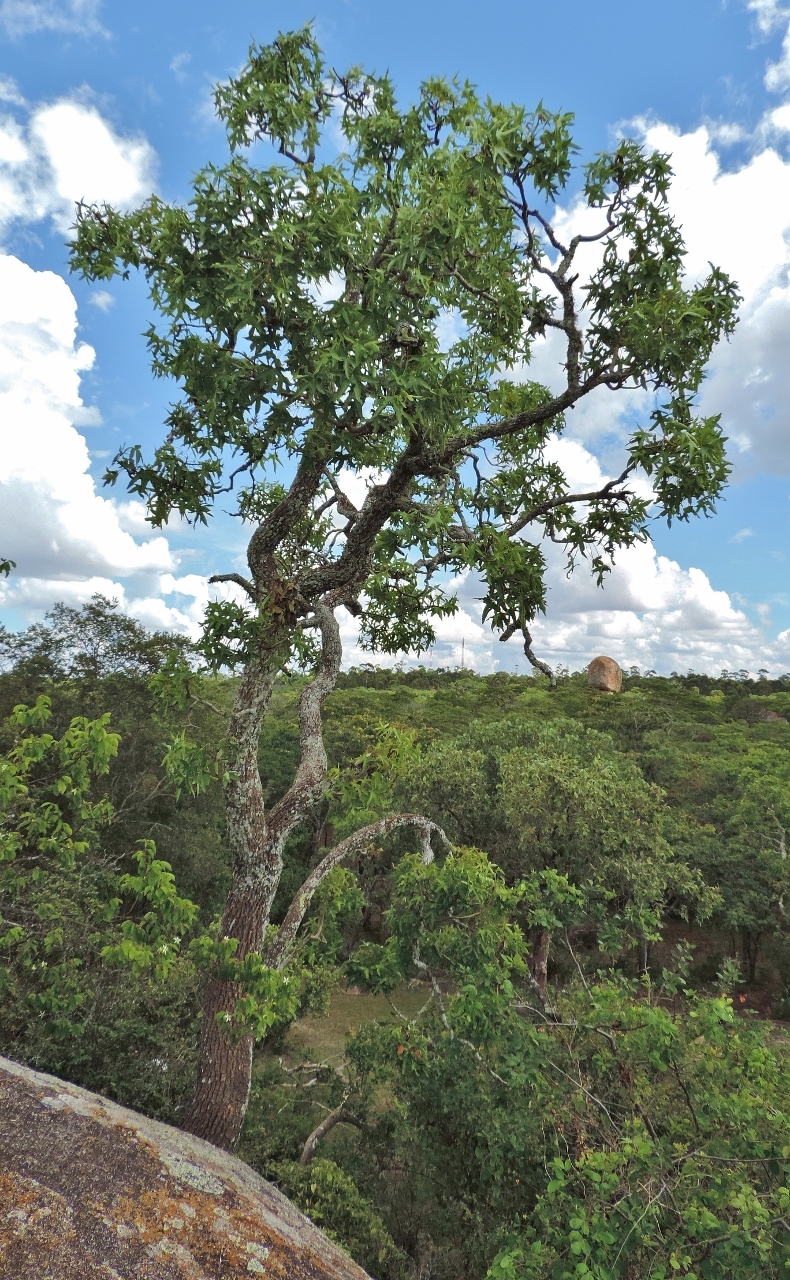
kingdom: Plantae
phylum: Tracheophyta
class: Magnoliopsida
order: Apiales
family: Araliaceae
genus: Cussonia
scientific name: Cussonia natalensis
